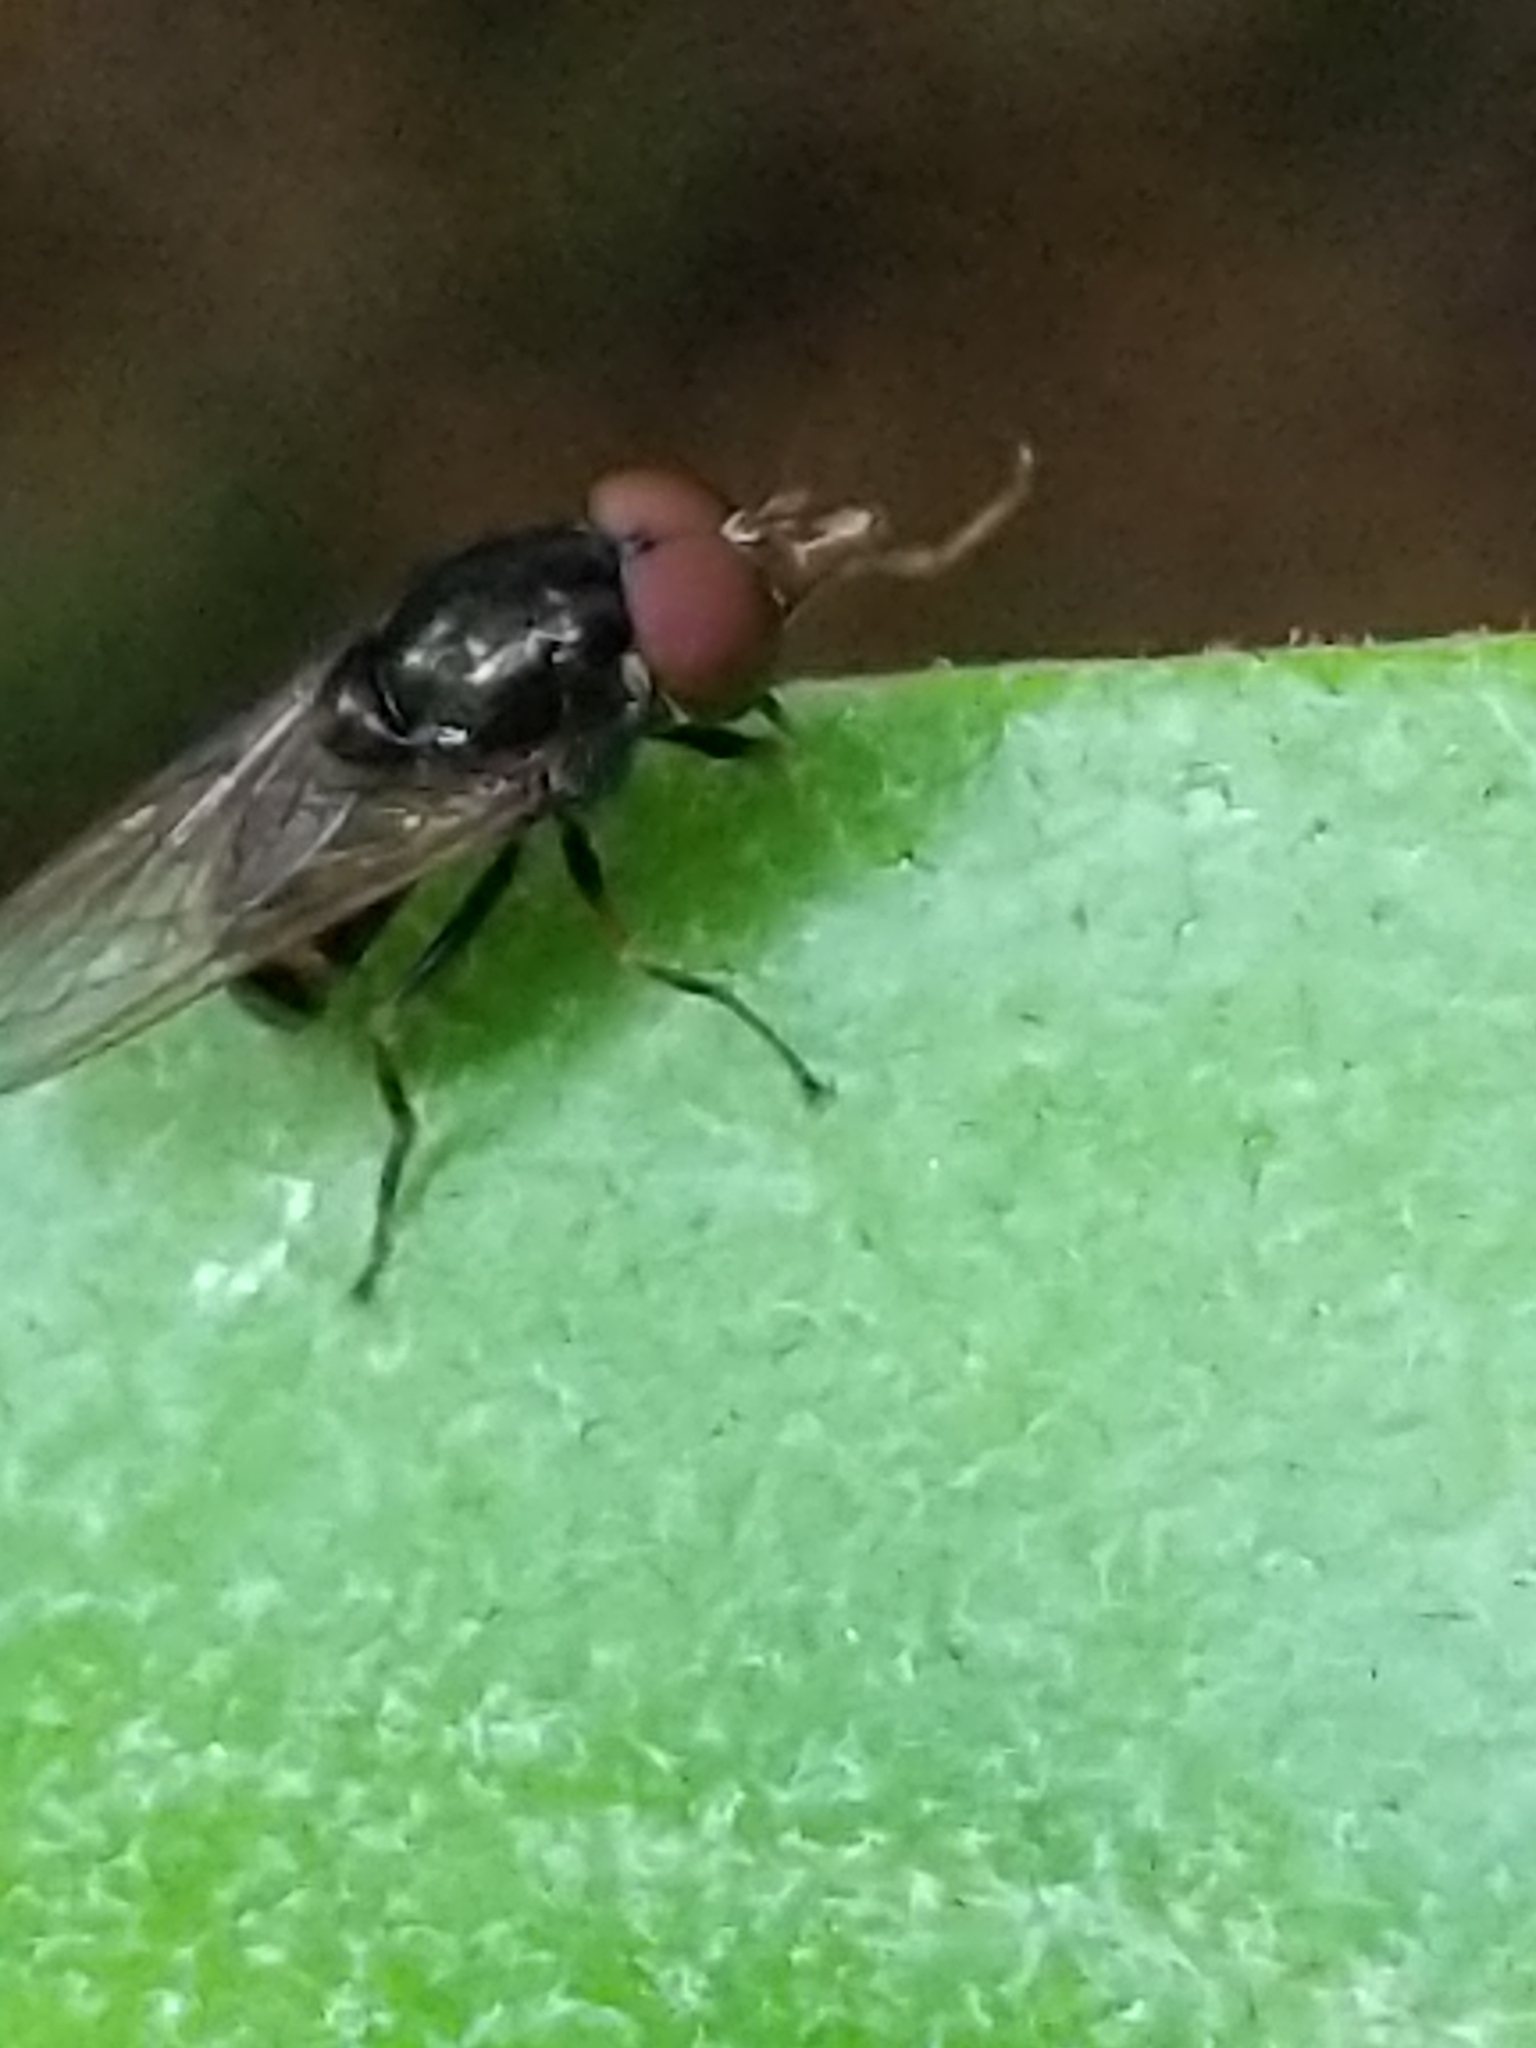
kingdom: Animalia
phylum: Arthropoda
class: Insecta
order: Diptera
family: Syrphidae
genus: Rhingia
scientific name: Rhingia nasica
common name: American snout fly
